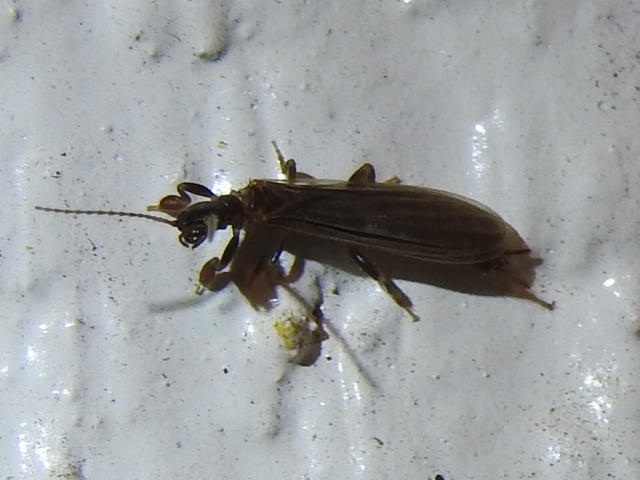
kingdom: Animalia
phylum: Arthropoda
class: Insecta
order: Embioptera
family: Oligotomidae
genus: Oligotoma
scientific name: Oligotoma nigra
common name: Black webspinner
